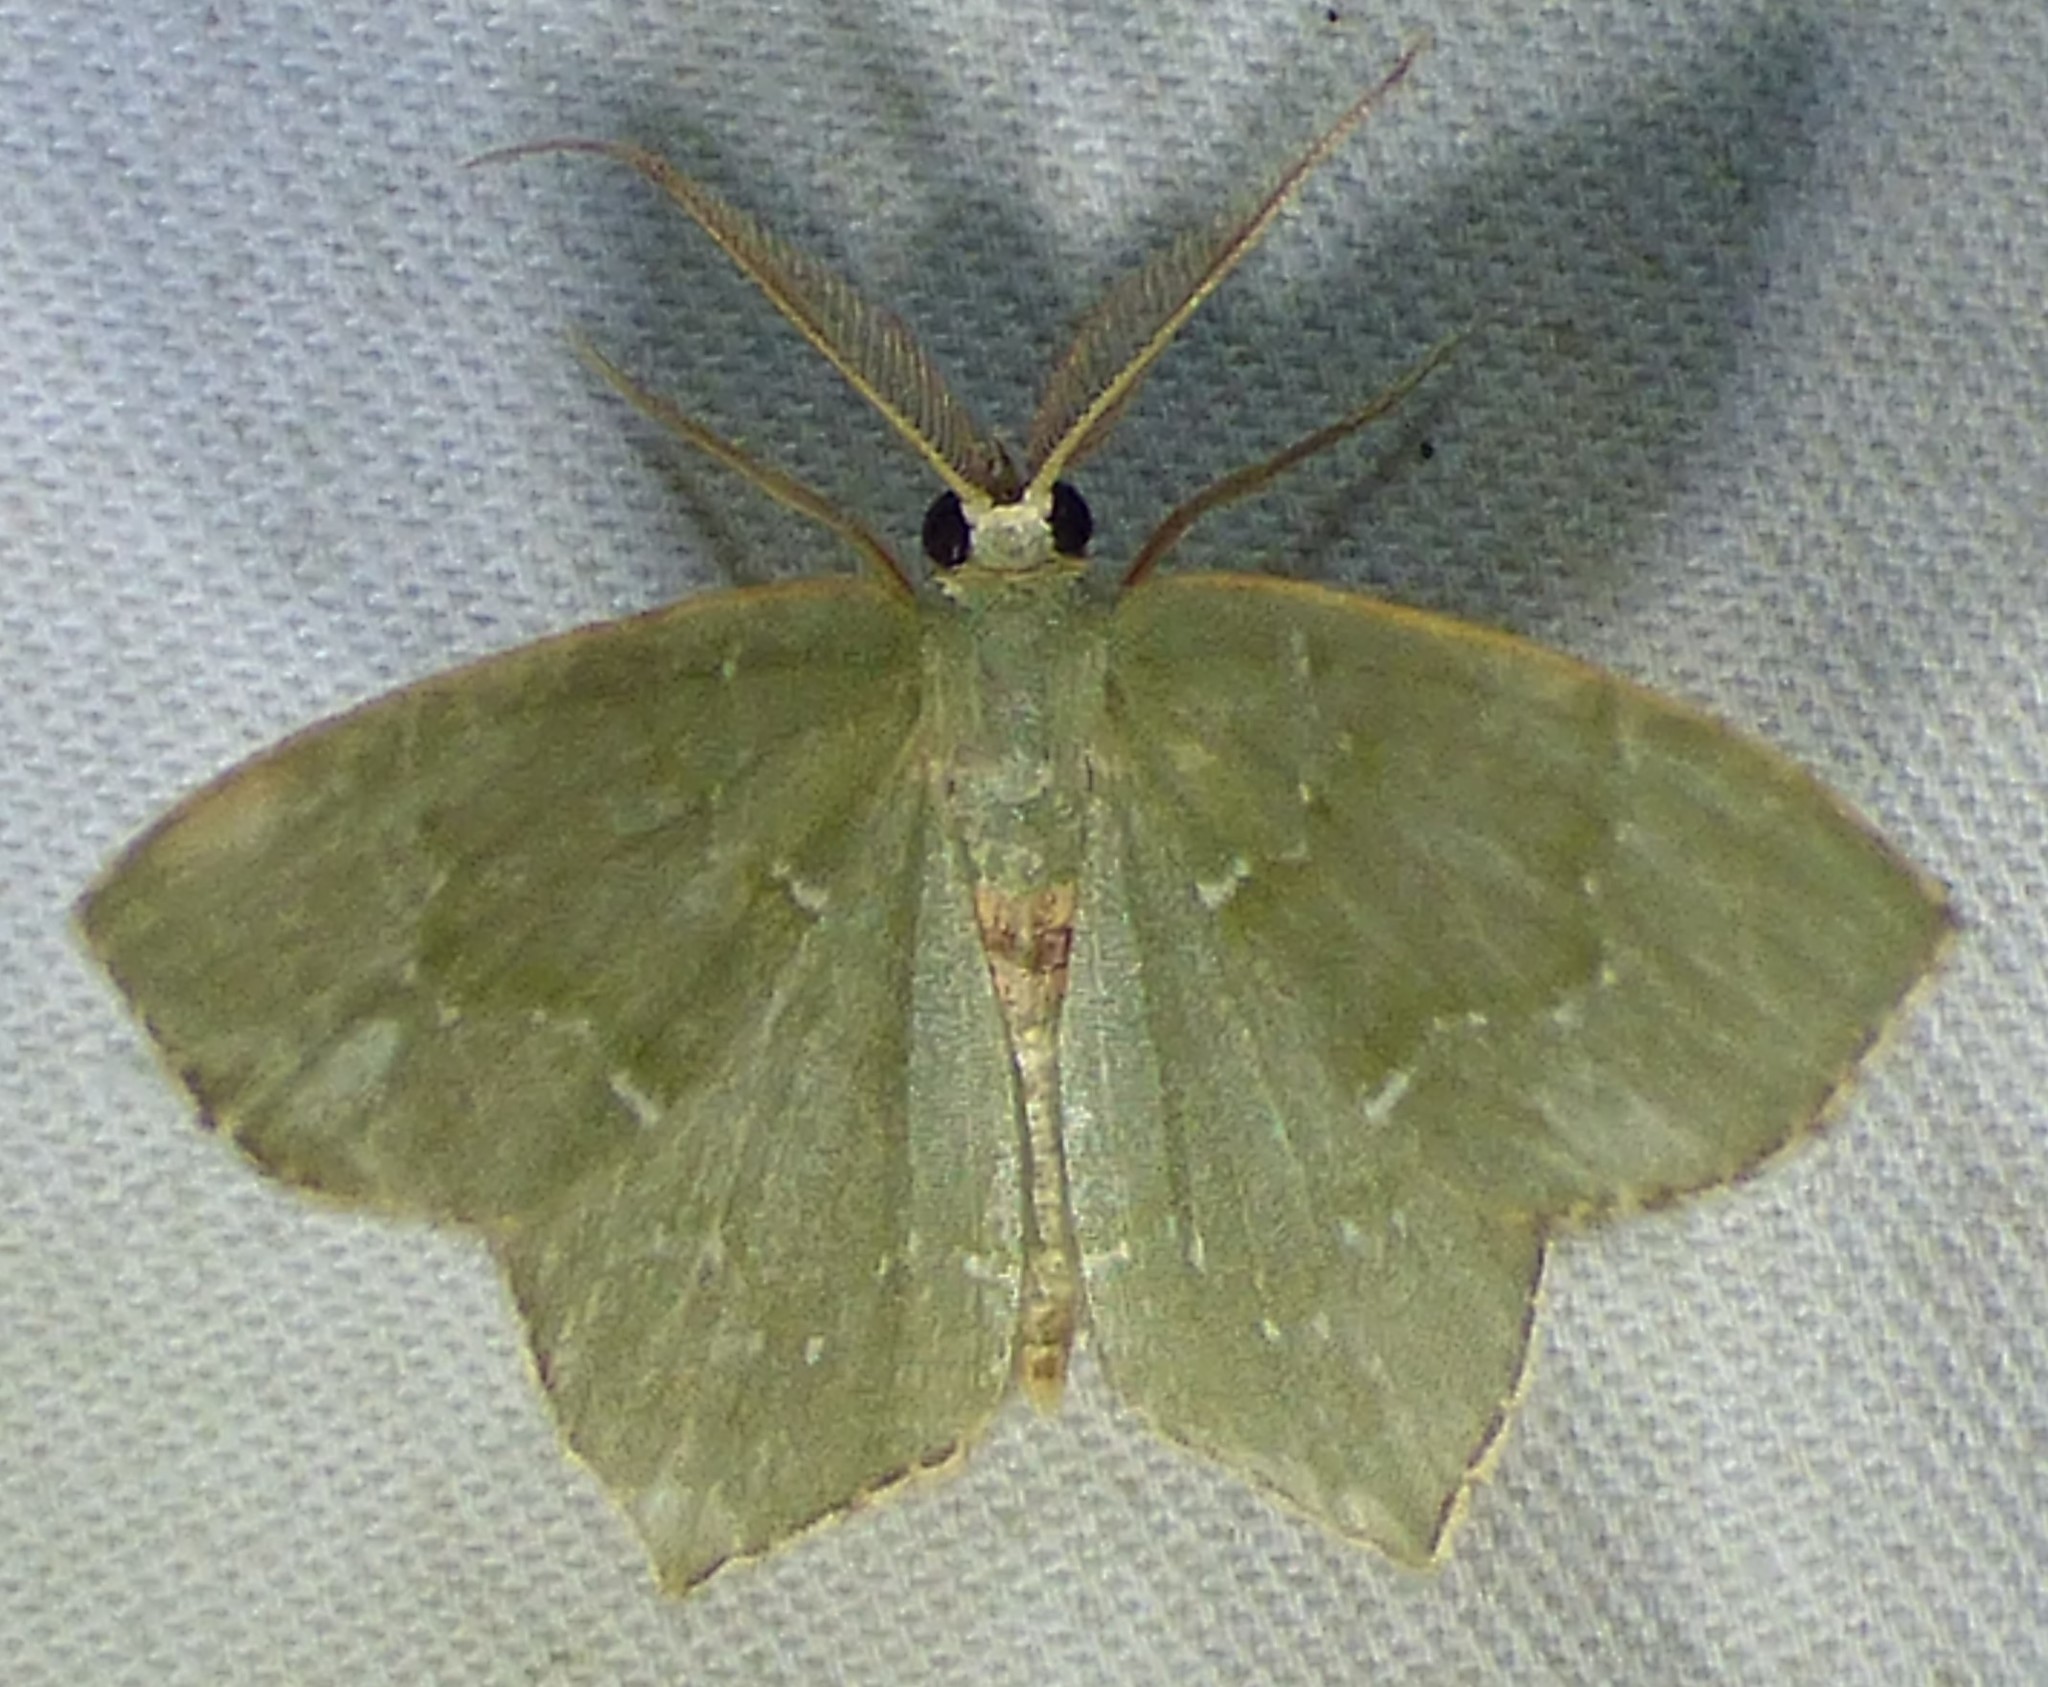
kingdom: Animalia
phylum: Arthropoda
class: Insecta
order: Lepidoptera
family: Geometridae
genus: Chloropteryx
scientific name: Chloropteryx tepperaria
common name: Angle winged emerald moth
